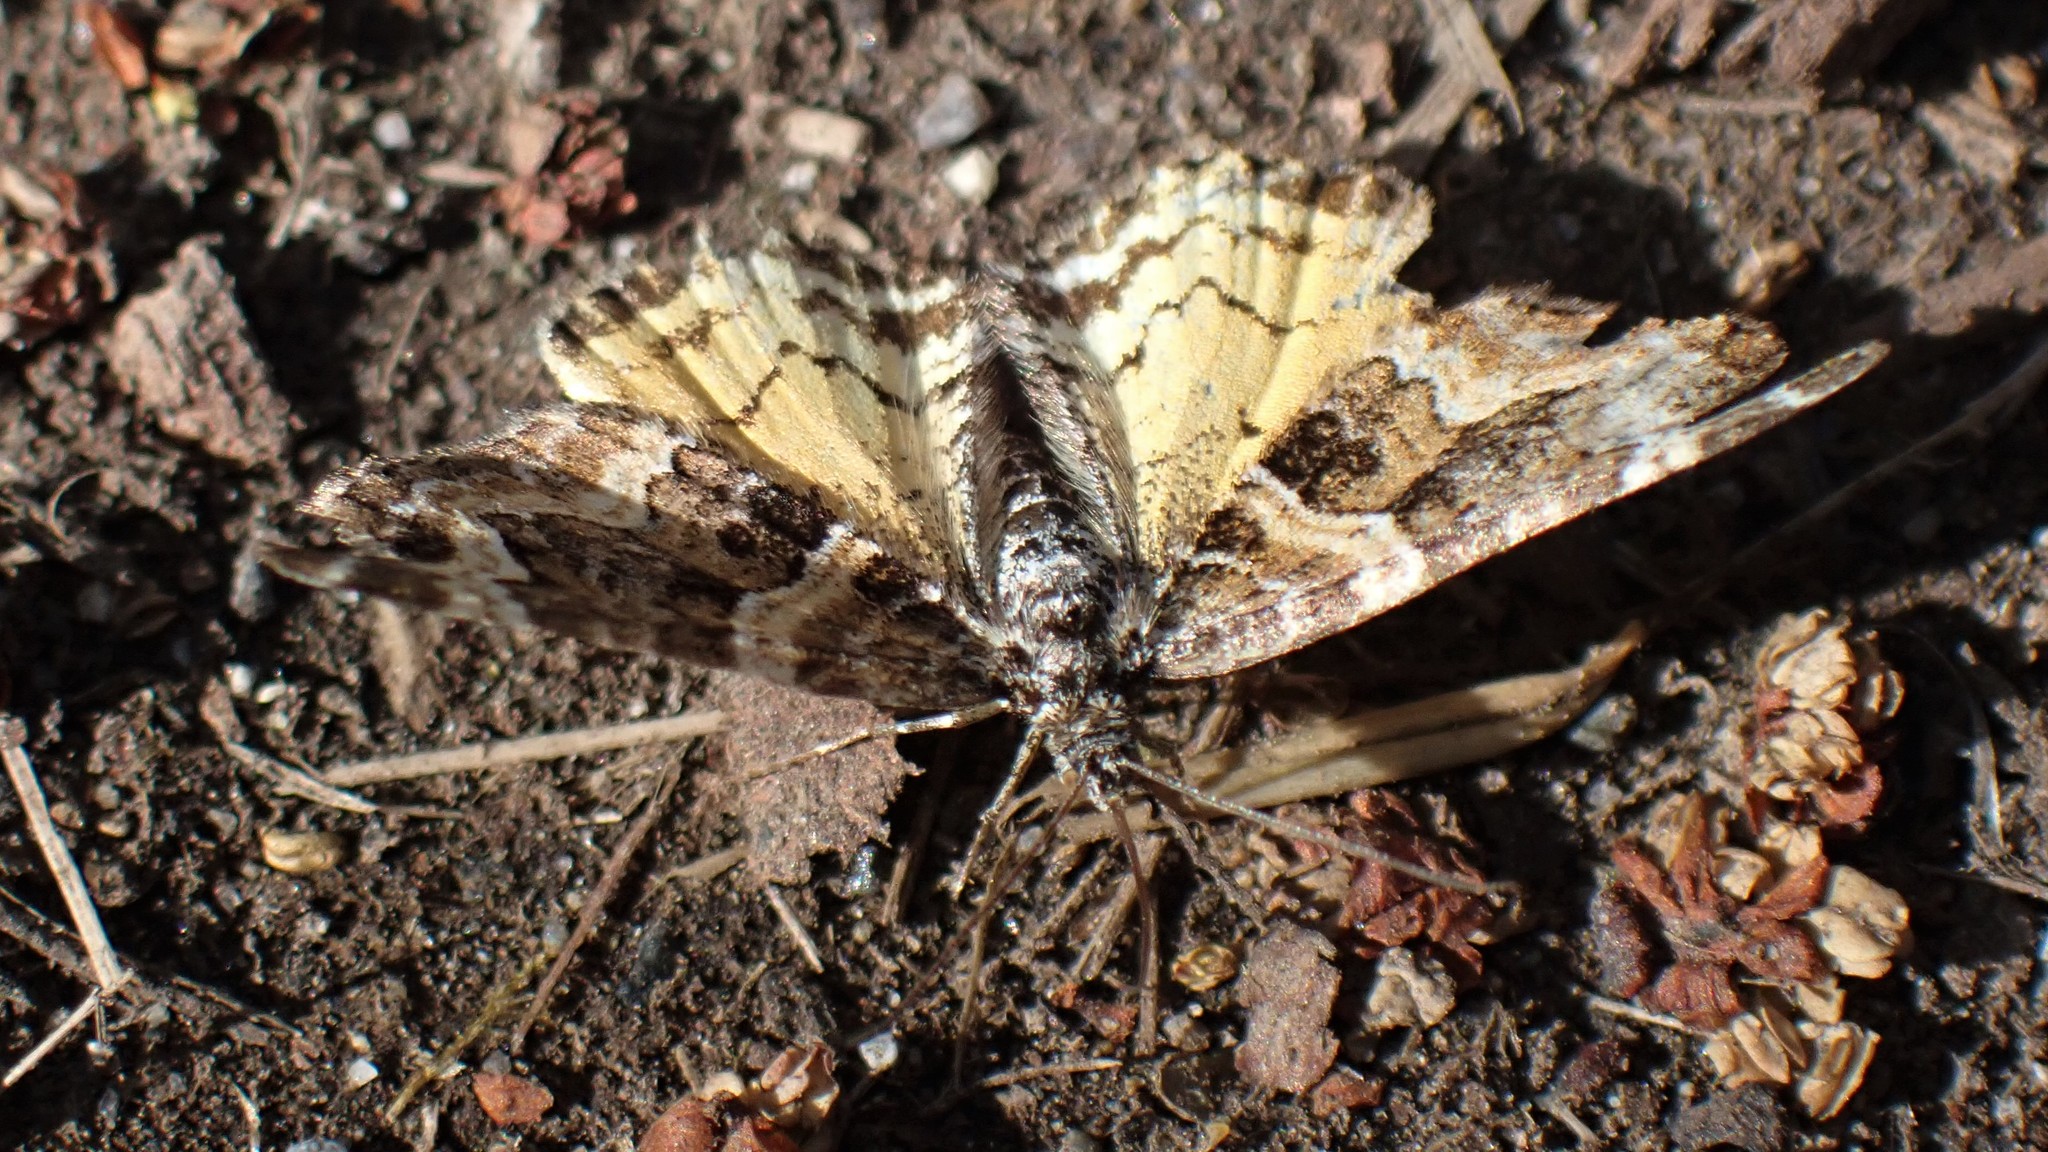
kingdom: Animalia
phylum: Arthropoda
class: Insecta
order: Lepidoptera
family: Geometridae
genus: Epirrhoe
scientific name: Epirrhoe plebeculata
